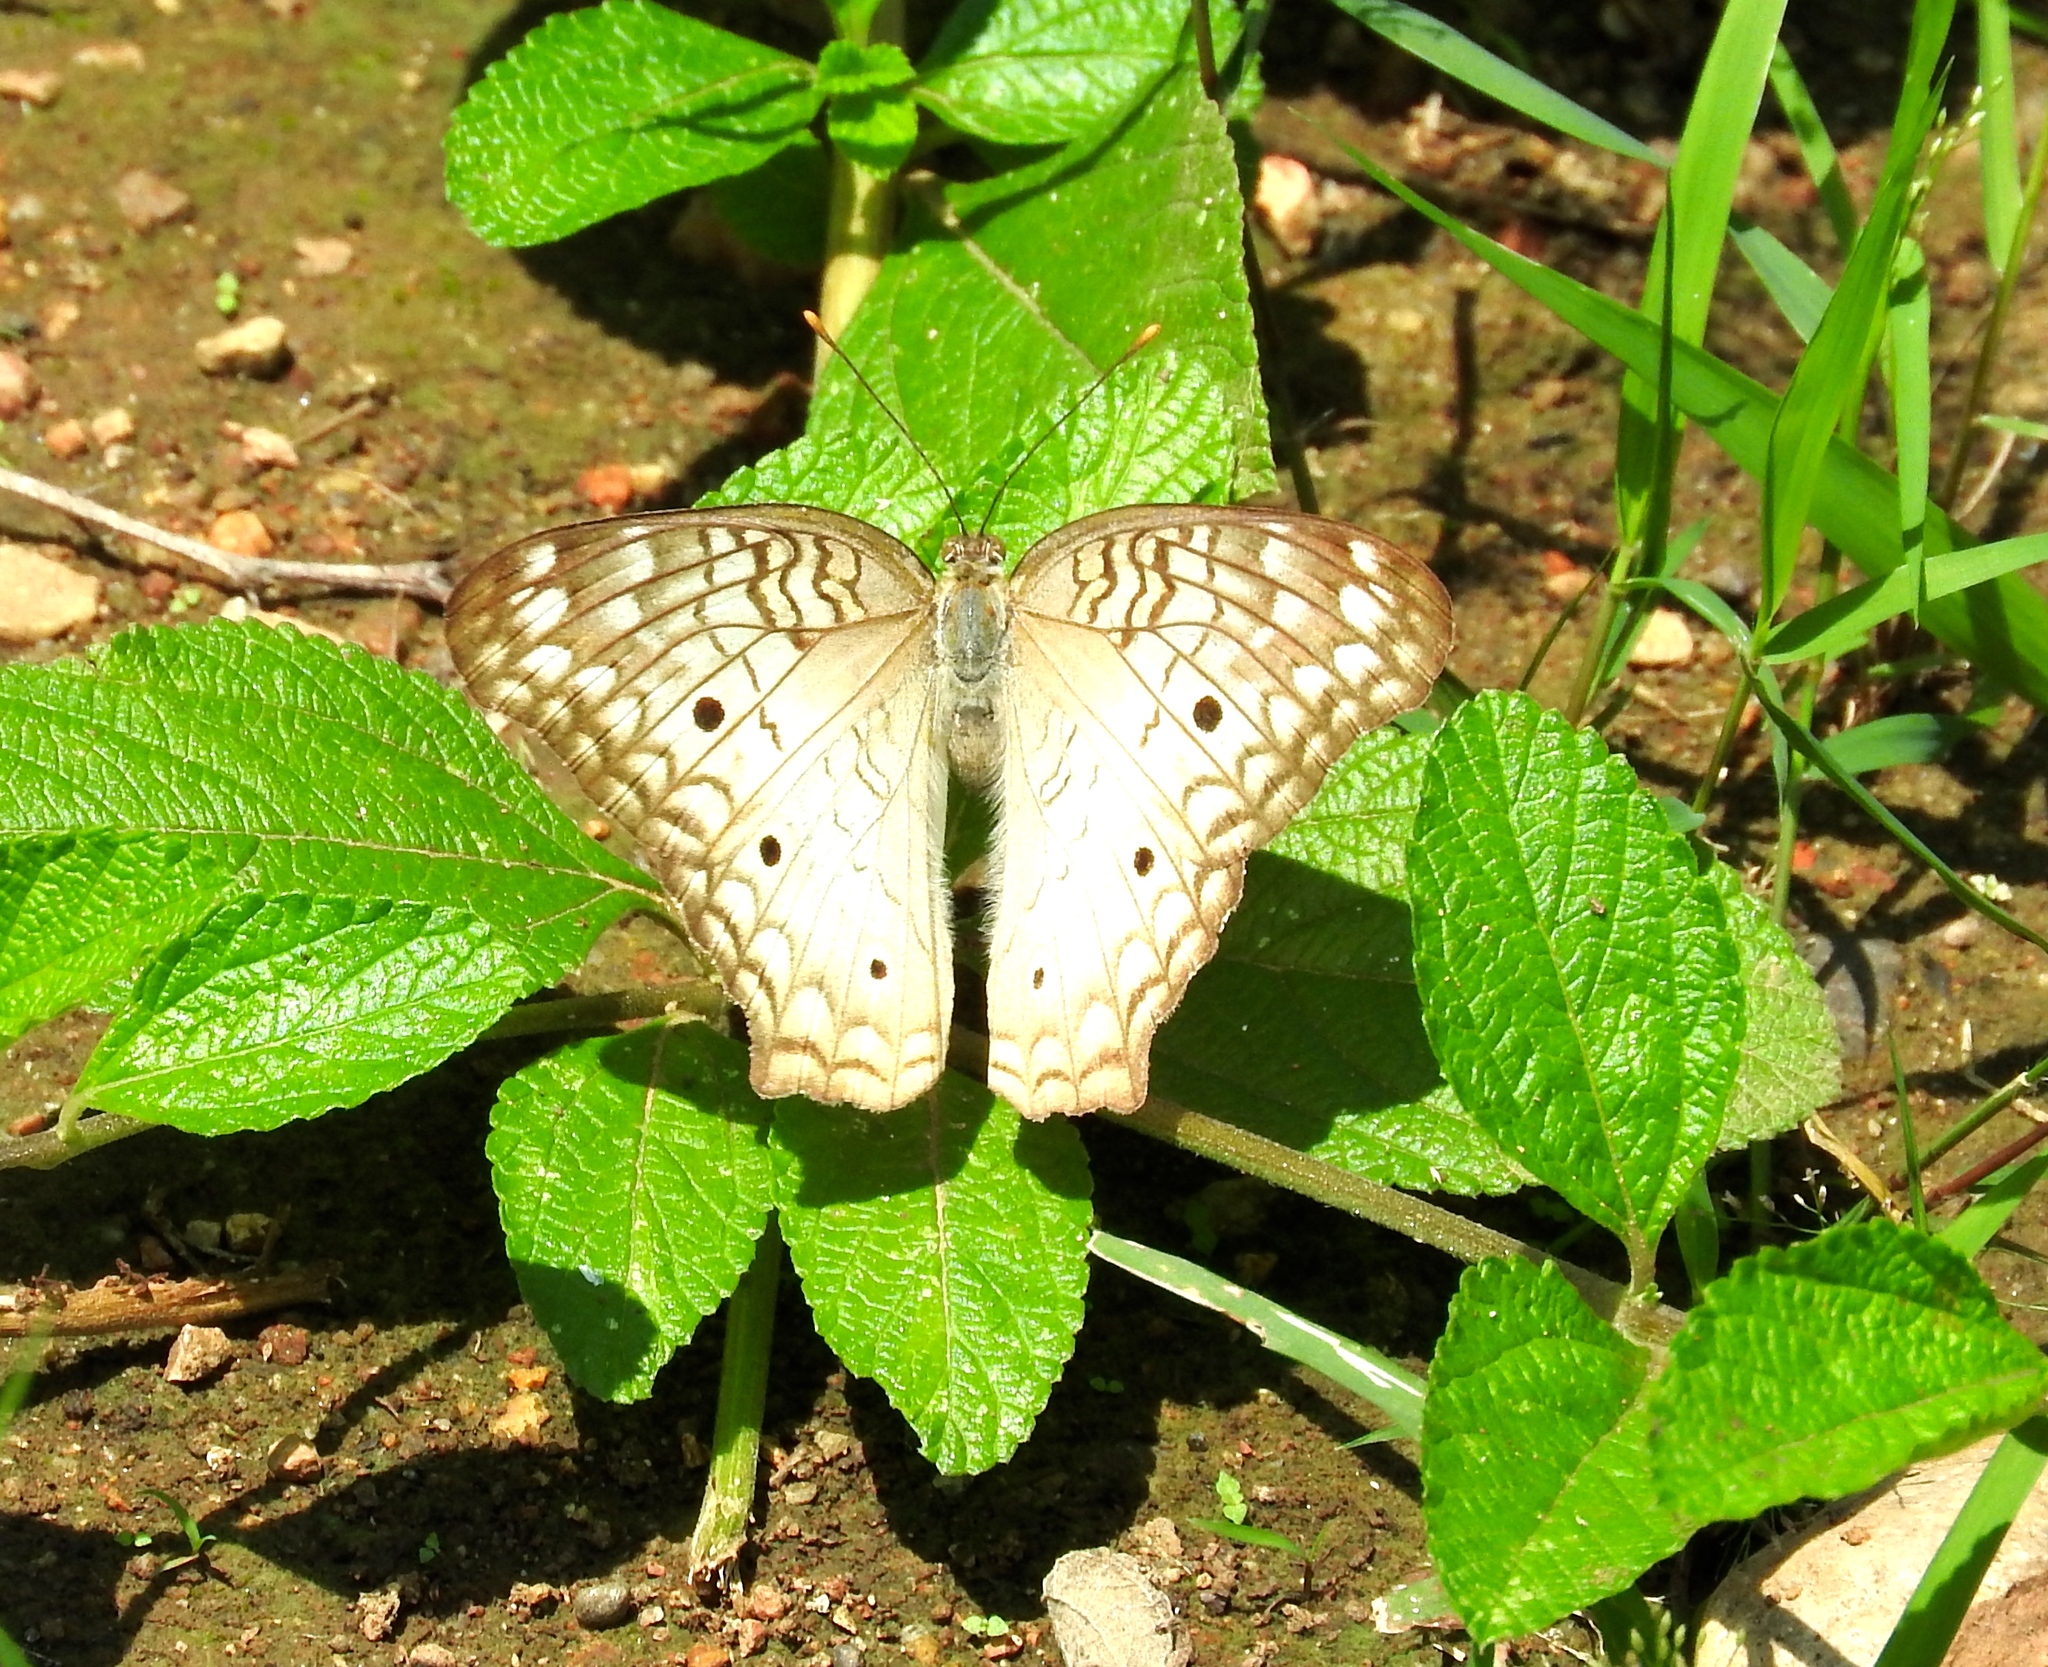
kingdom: Animalia
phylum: Arthropoda
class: Insecta
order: Lepidoptera
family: Nymphalidae
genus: Anartia
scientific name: Anartia jatrophae
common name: White peacock
